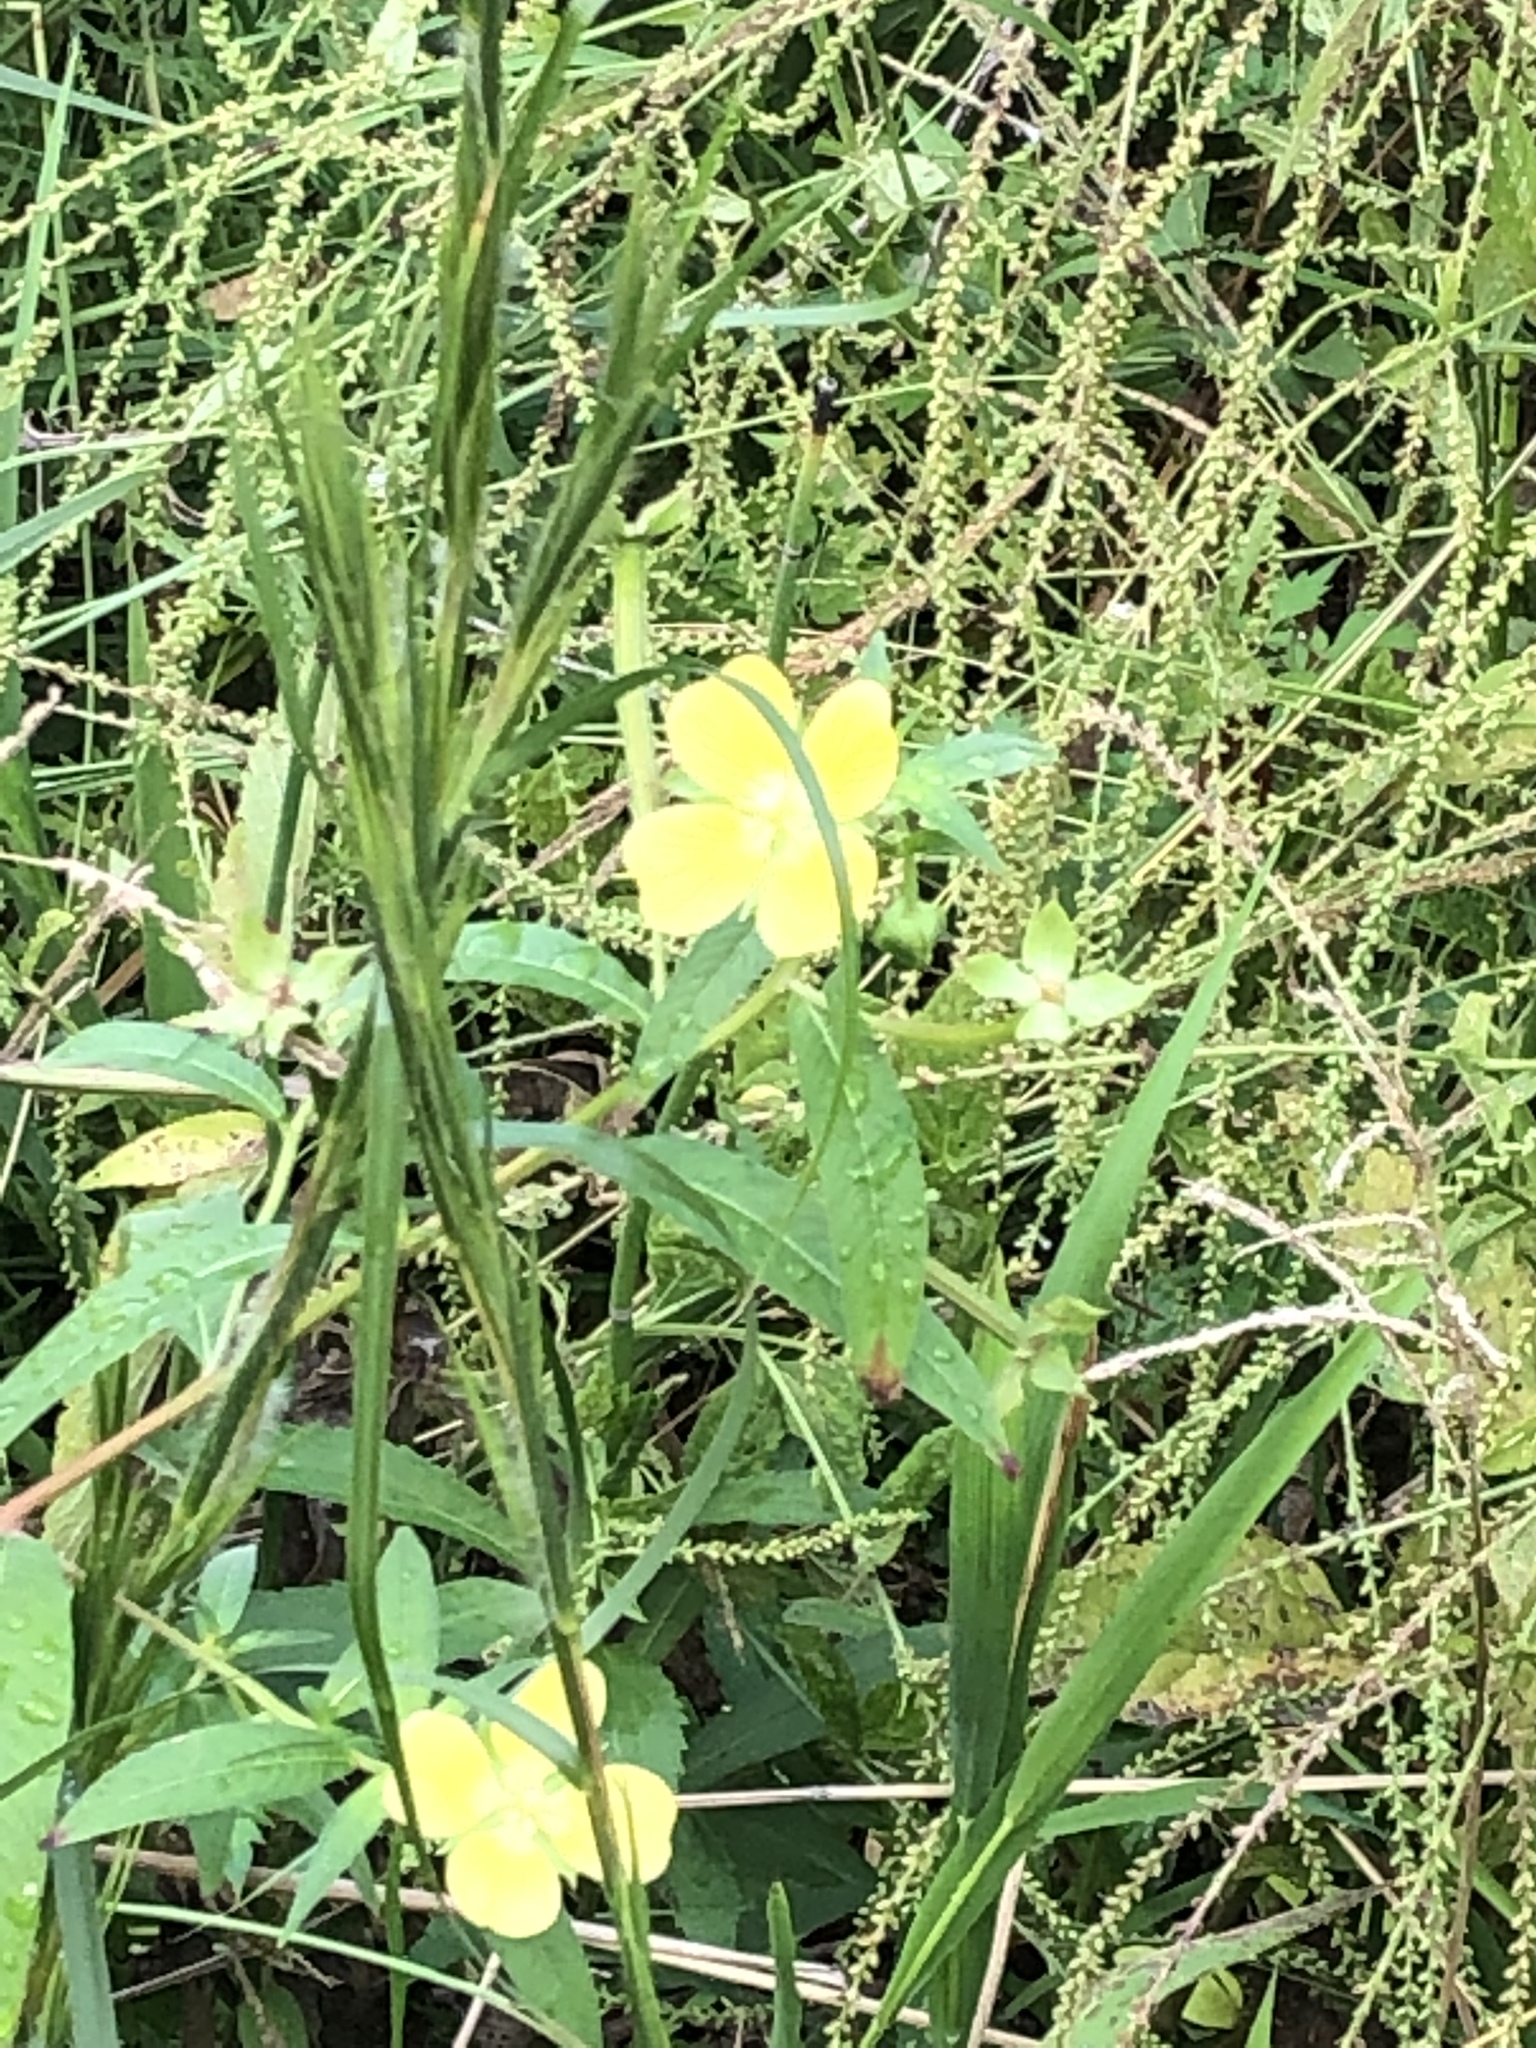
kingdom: Plantae
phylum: Tracheophyta
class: Magnoliopsida
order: Myrtales
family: Onagraceae
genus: Ludwigia
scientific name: Ludwigia octovalvis
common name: Water-primrose
